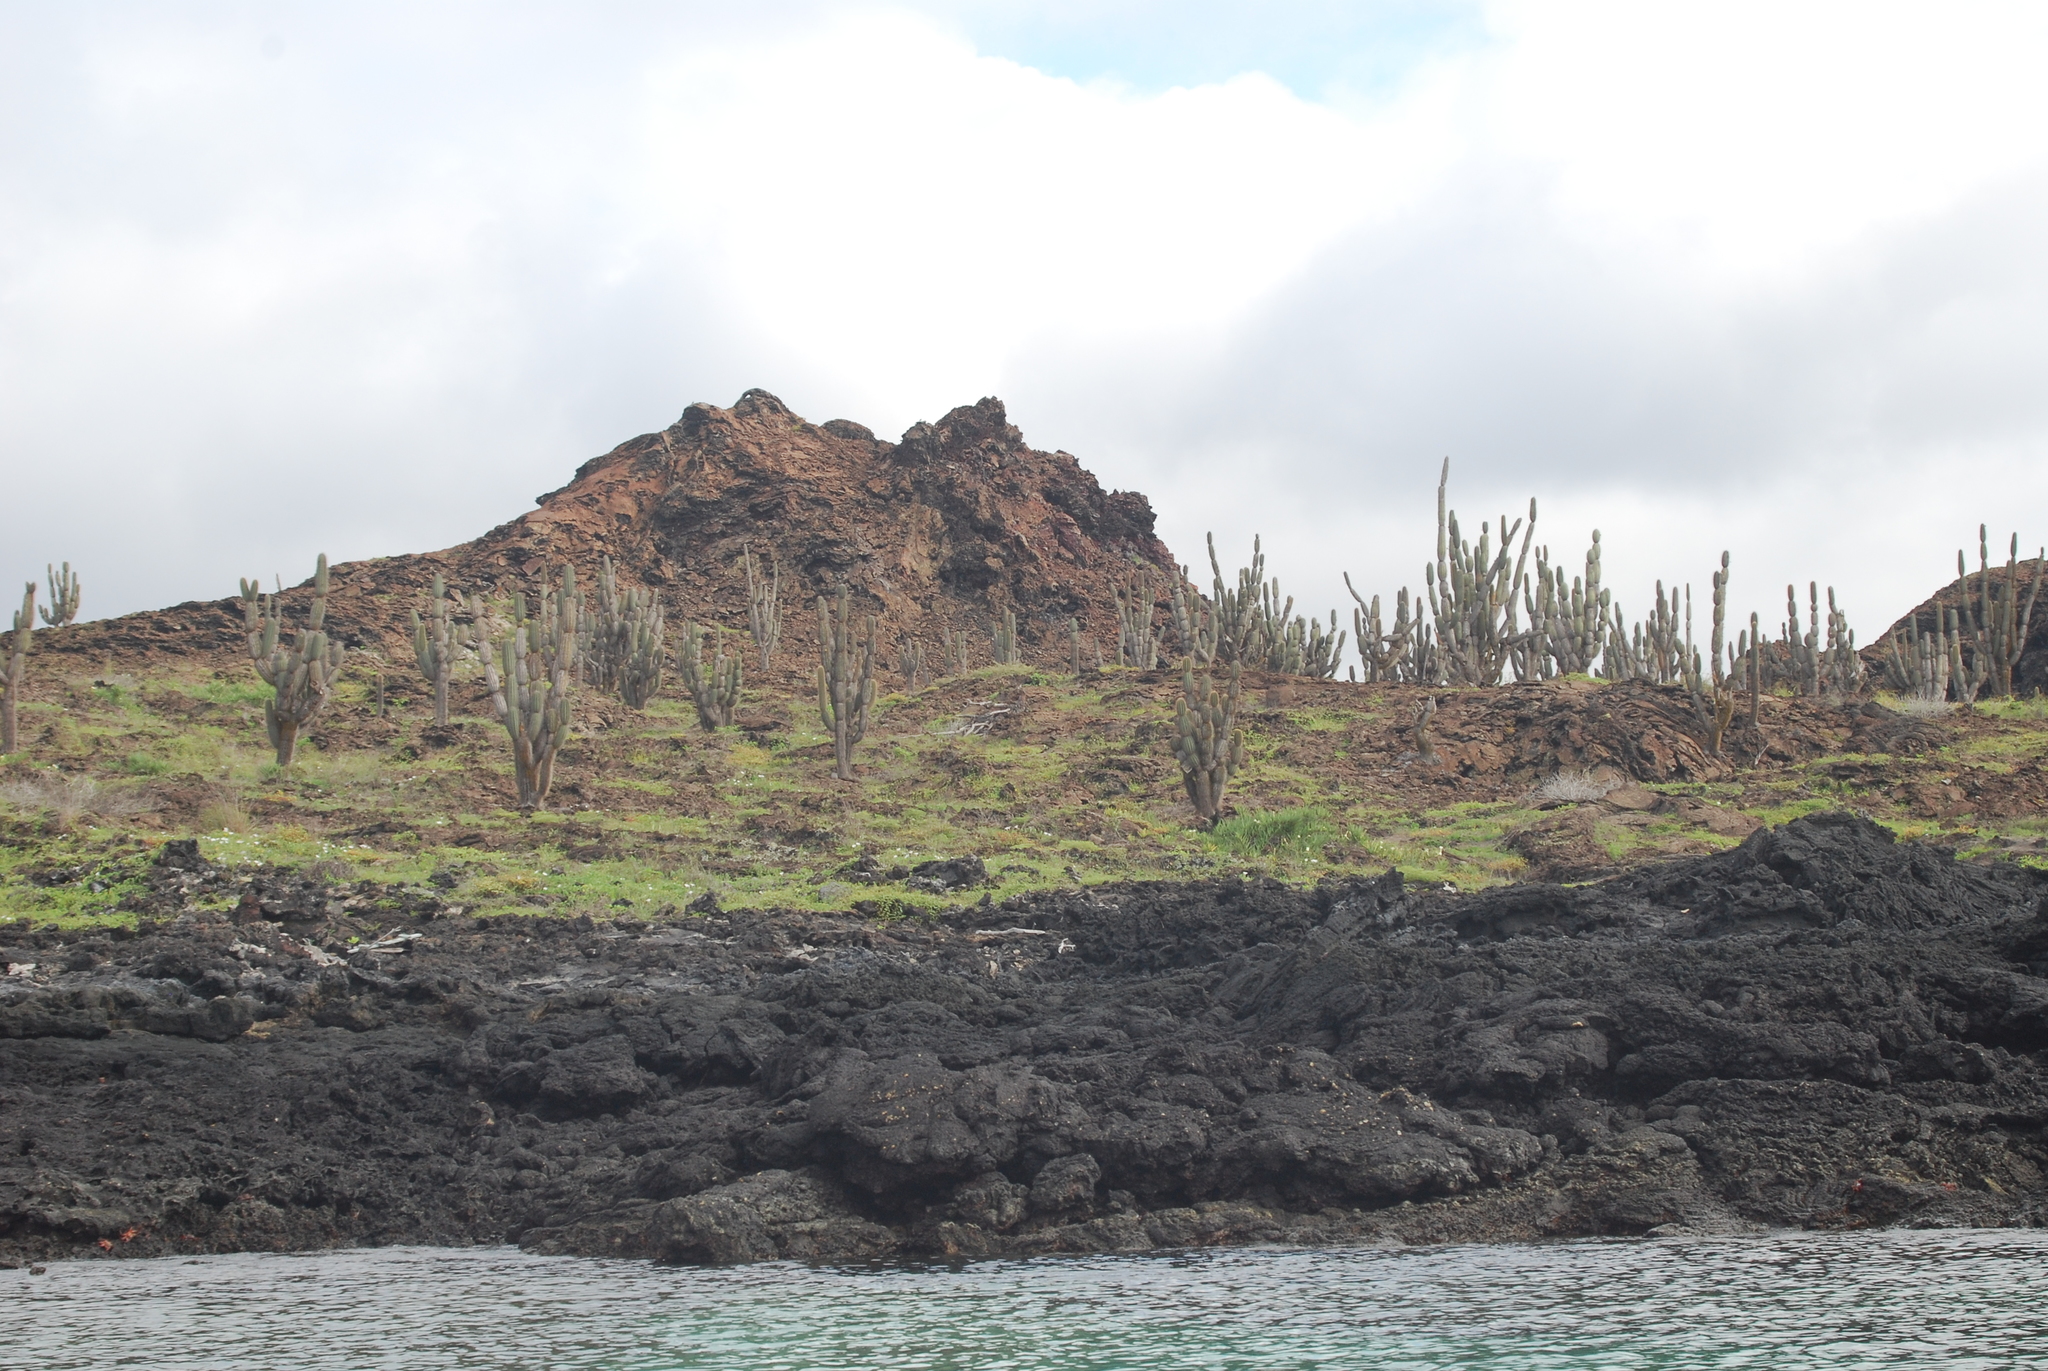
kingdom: Plantae
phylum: Tracheophyta
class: Magnoliopsida
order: Caryophyllales
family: Cactaceae
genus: Jasminocereus
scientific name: Jasminocereus thouarsii
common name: Candelabra cactus
